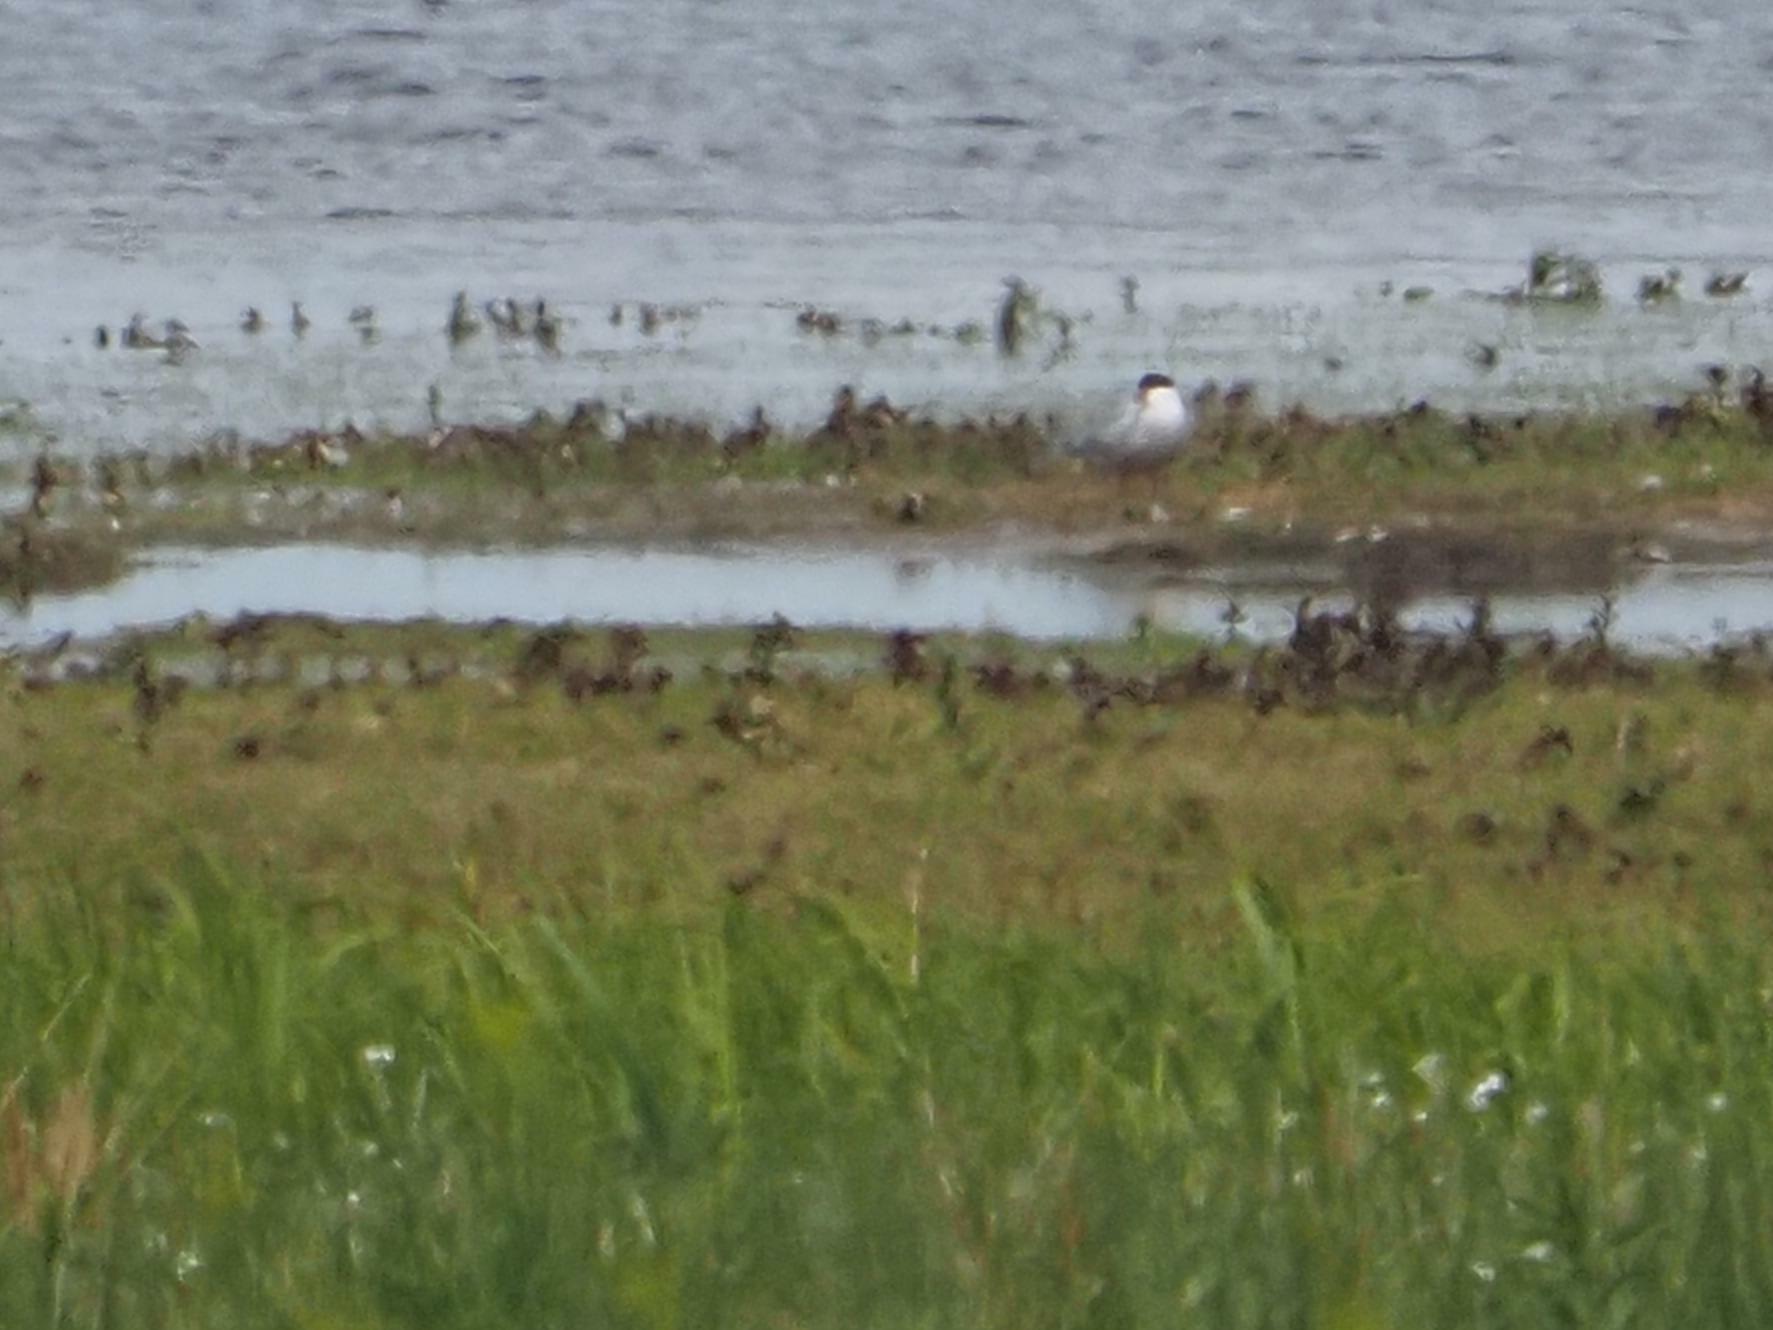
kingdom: Animalia
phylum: Chordata
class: Aves
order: Charadriiformes
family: Laridae
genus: Sterna
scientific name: Sterna hirundo
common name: Common tern
